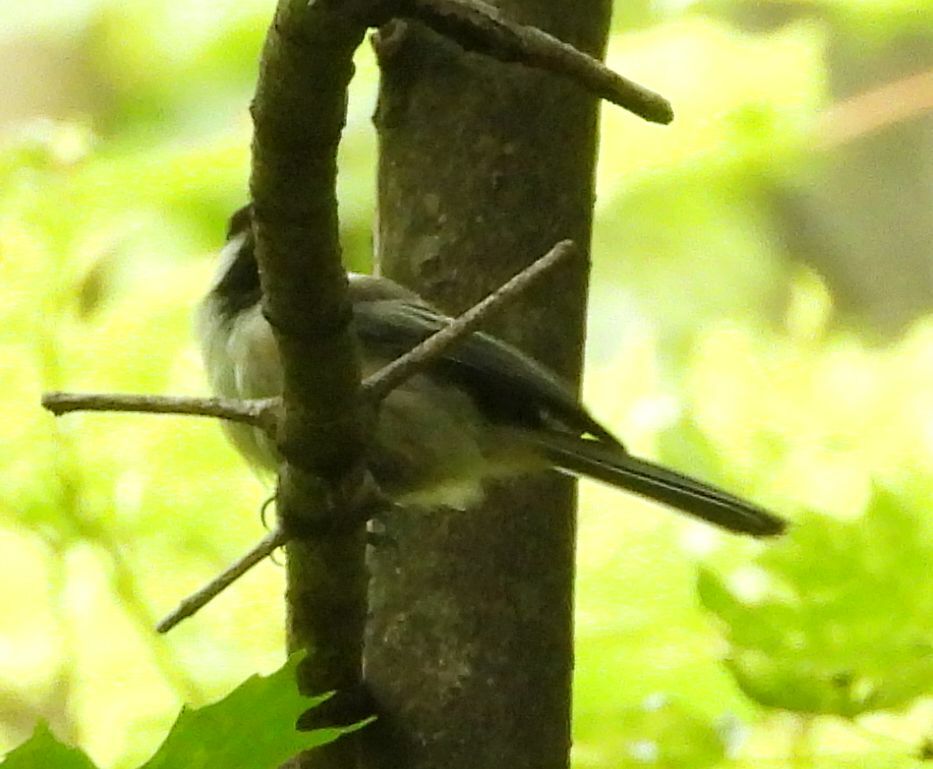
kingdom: Animalia
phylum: Chordata
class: Aves
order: Passeriformes
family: Paridae
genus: Poecile
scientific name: Poecile atricapillus
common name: Black-capped chickadee
